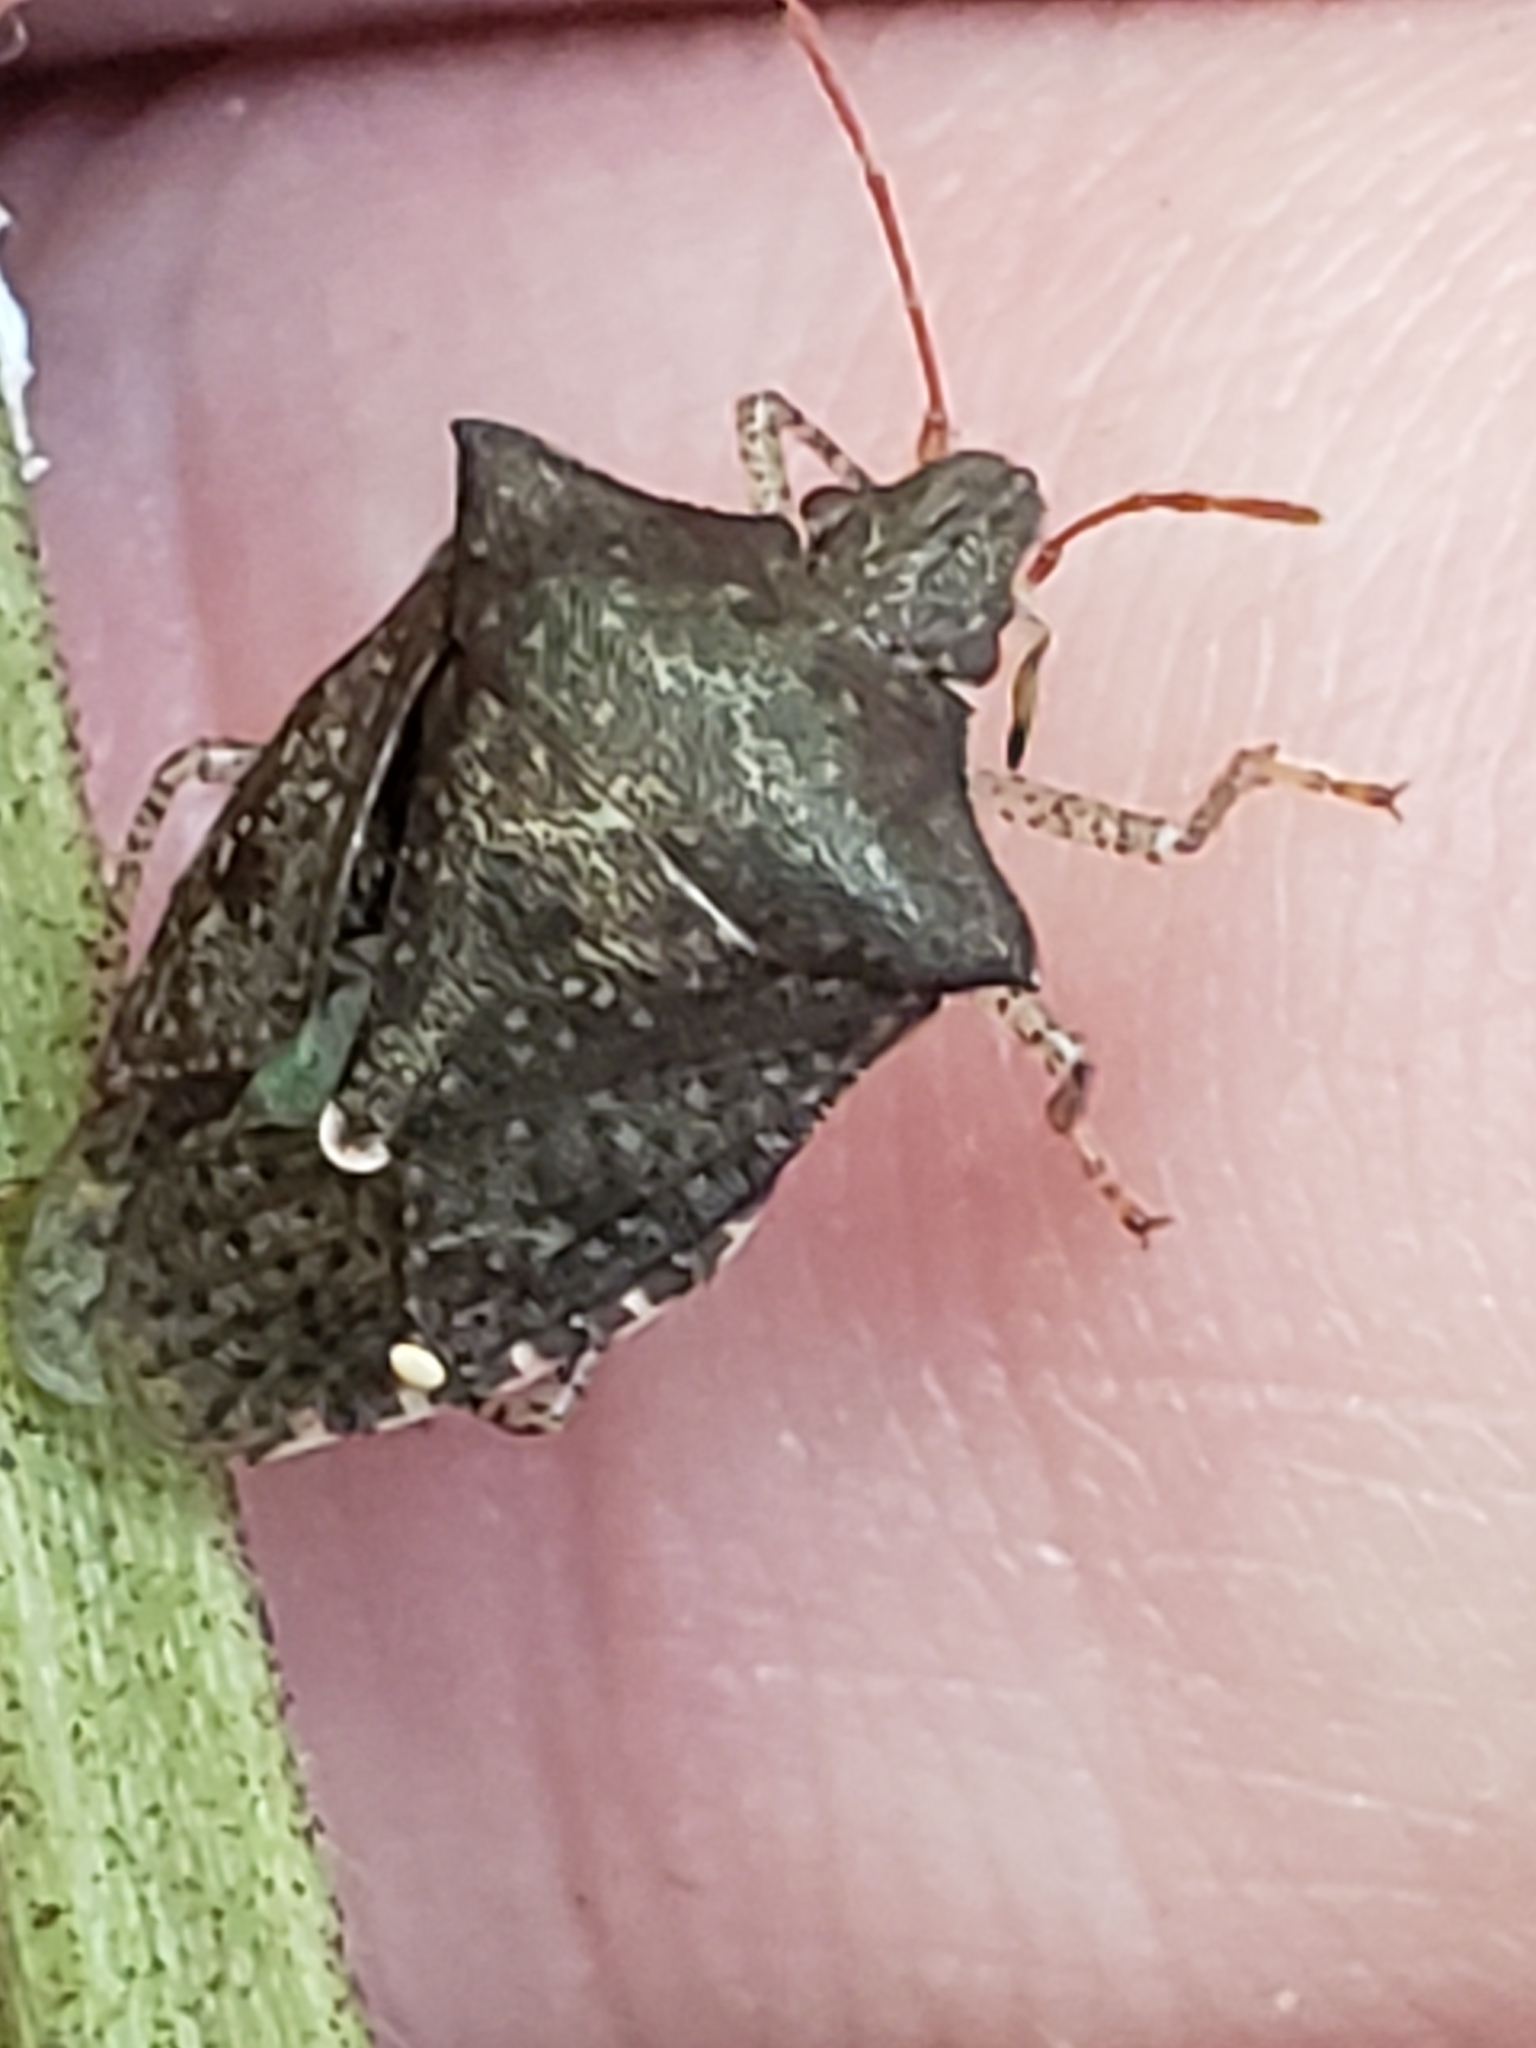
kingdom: Animalia
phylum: Arthropoda
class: Insecta
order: Hemiptera
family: Pentatomidae
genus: Euschistus
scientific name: Euschistus tristigmus
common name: Dusky stink bug
